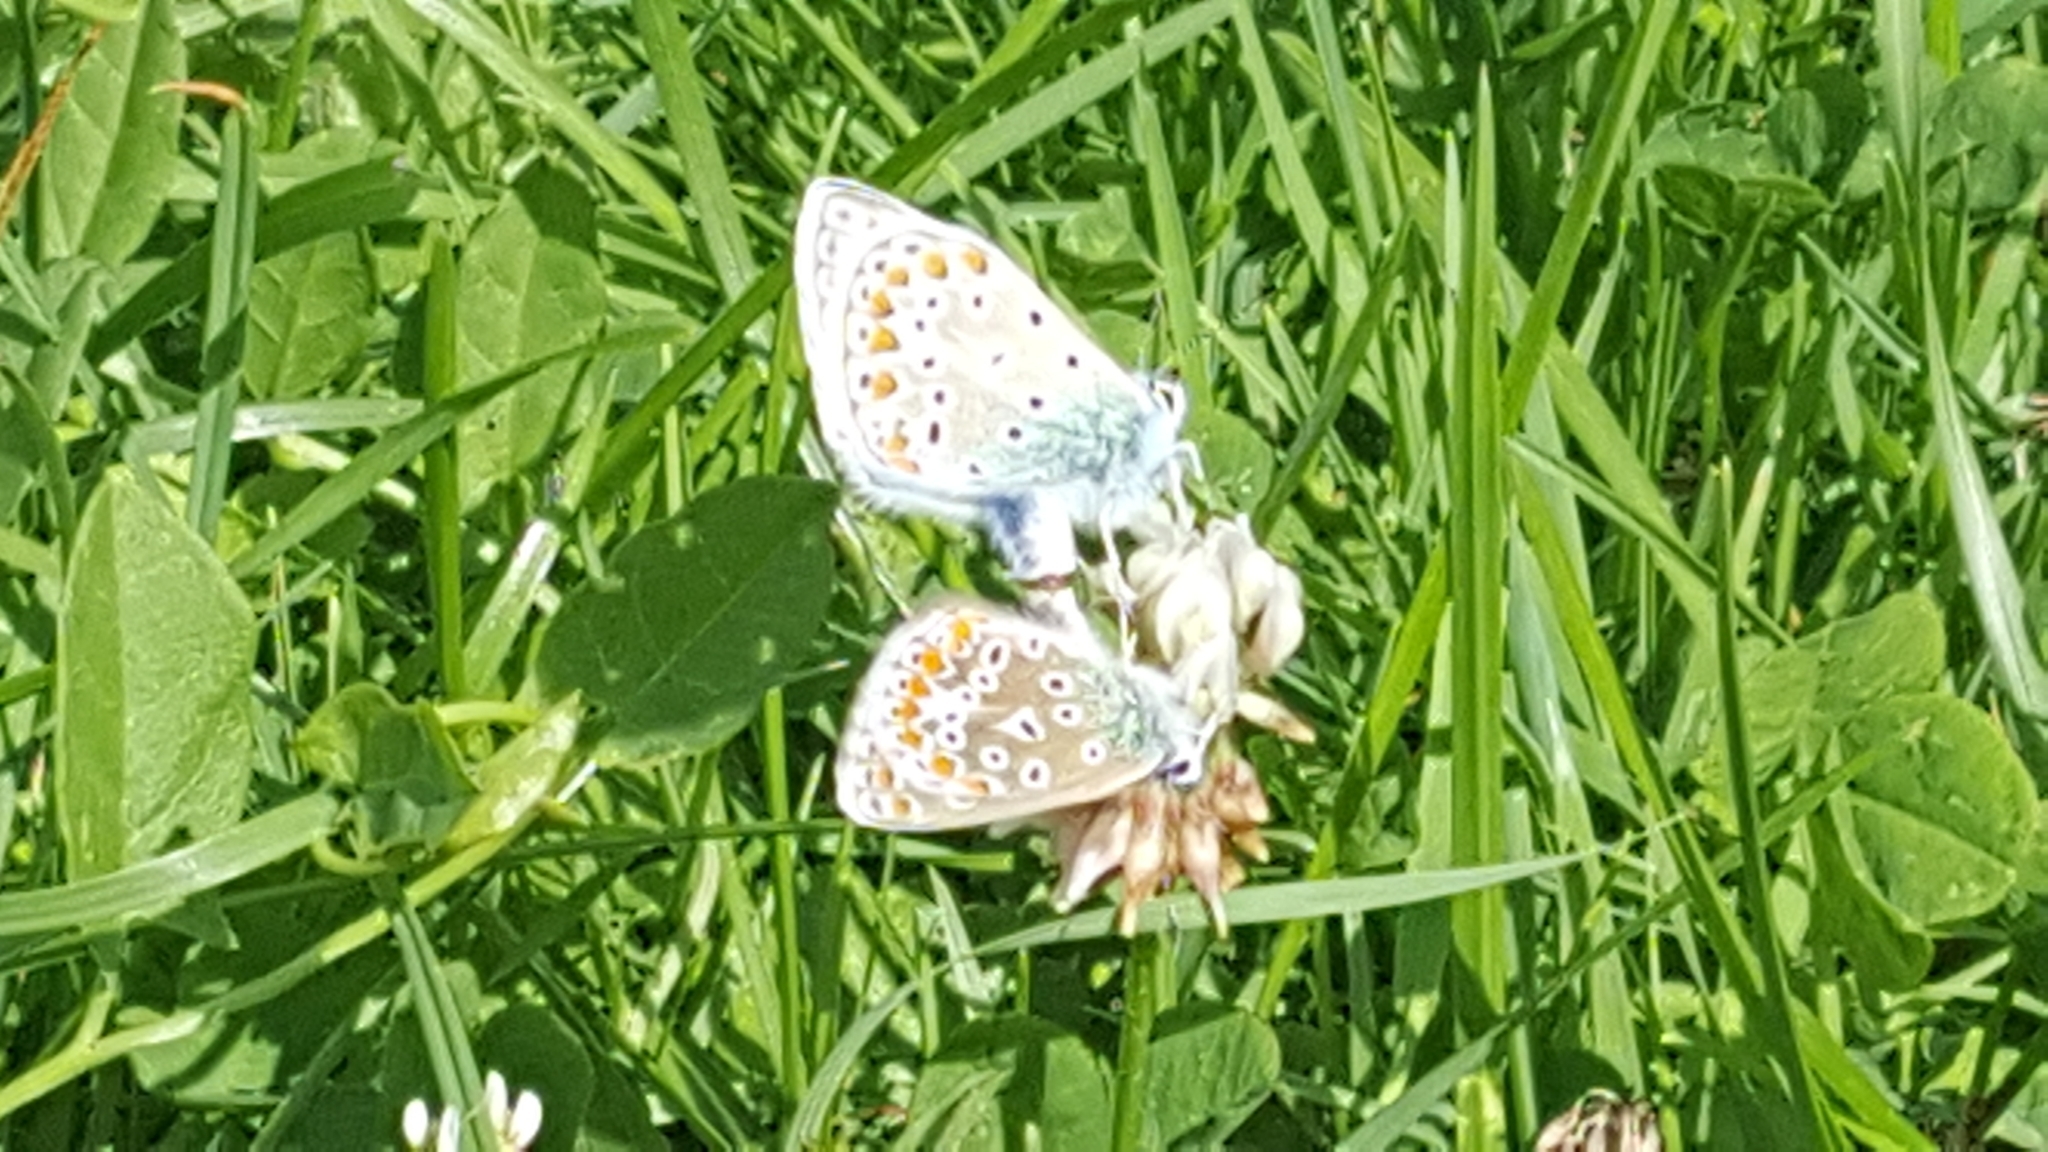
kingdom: Animalia
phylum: Arthropoda
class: Insecta
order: Lepidoptera
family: Lycaenidae
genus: Polyommatus
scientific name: Polyommatus icarus
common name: Common blue
